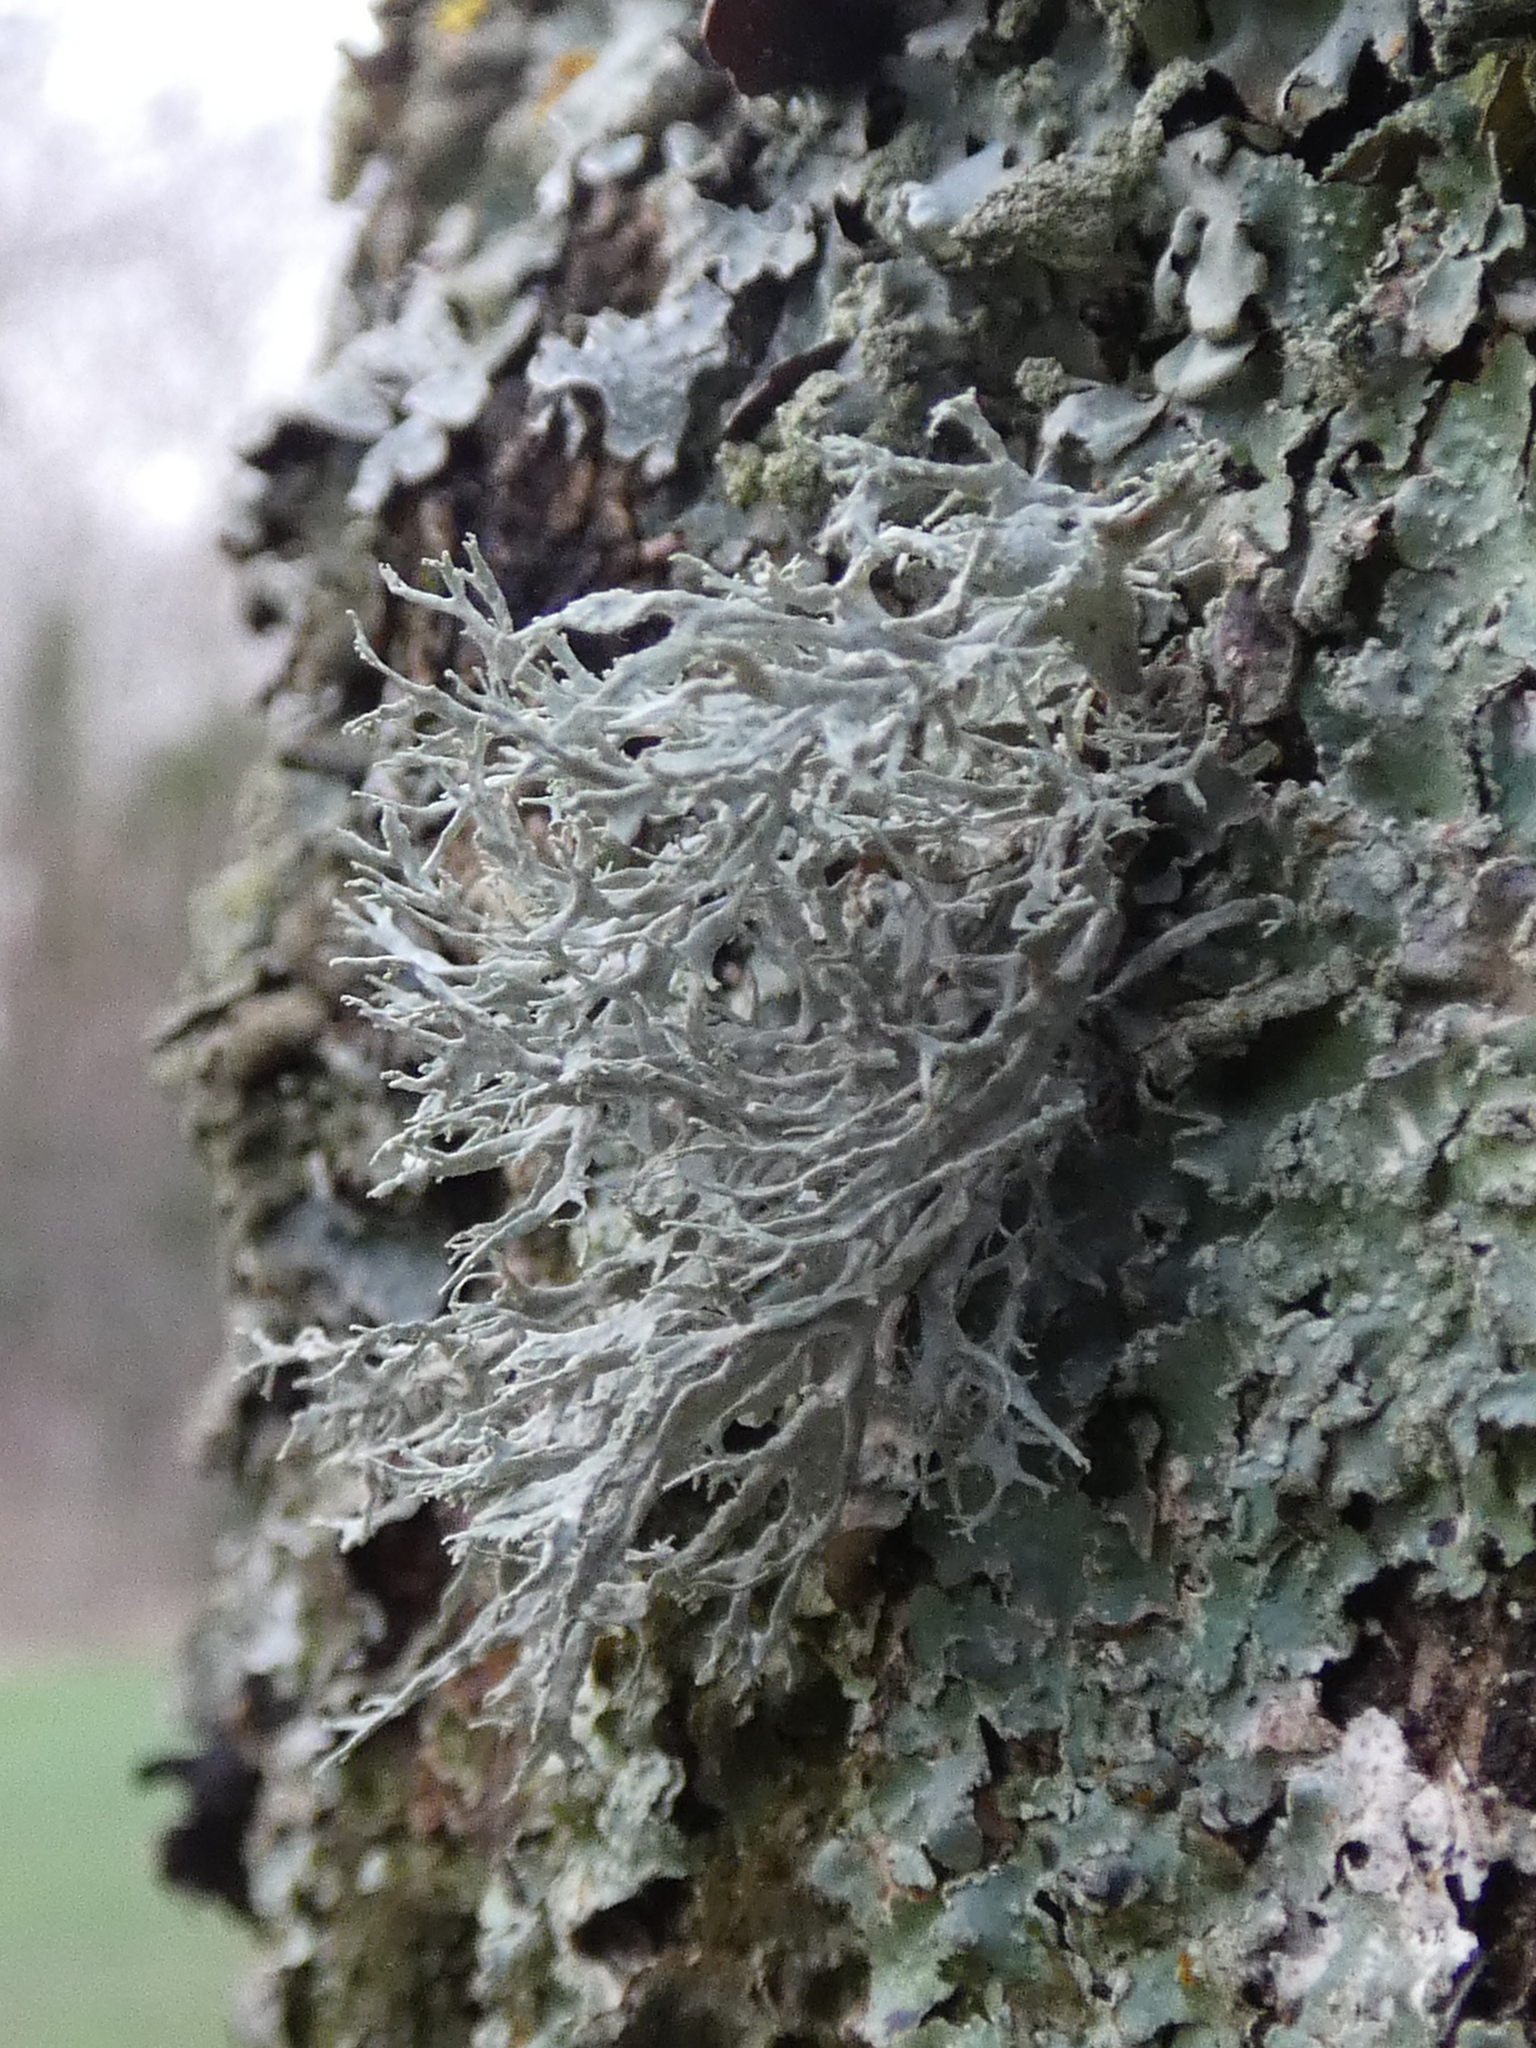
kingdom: Fungi
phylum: Ascomycota
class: Lecanoromycetes
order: Lecanorales
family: Ramalinaceae
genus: Ramalina
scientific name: Ramalina farinacea
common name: Farinose cartilage lichen
